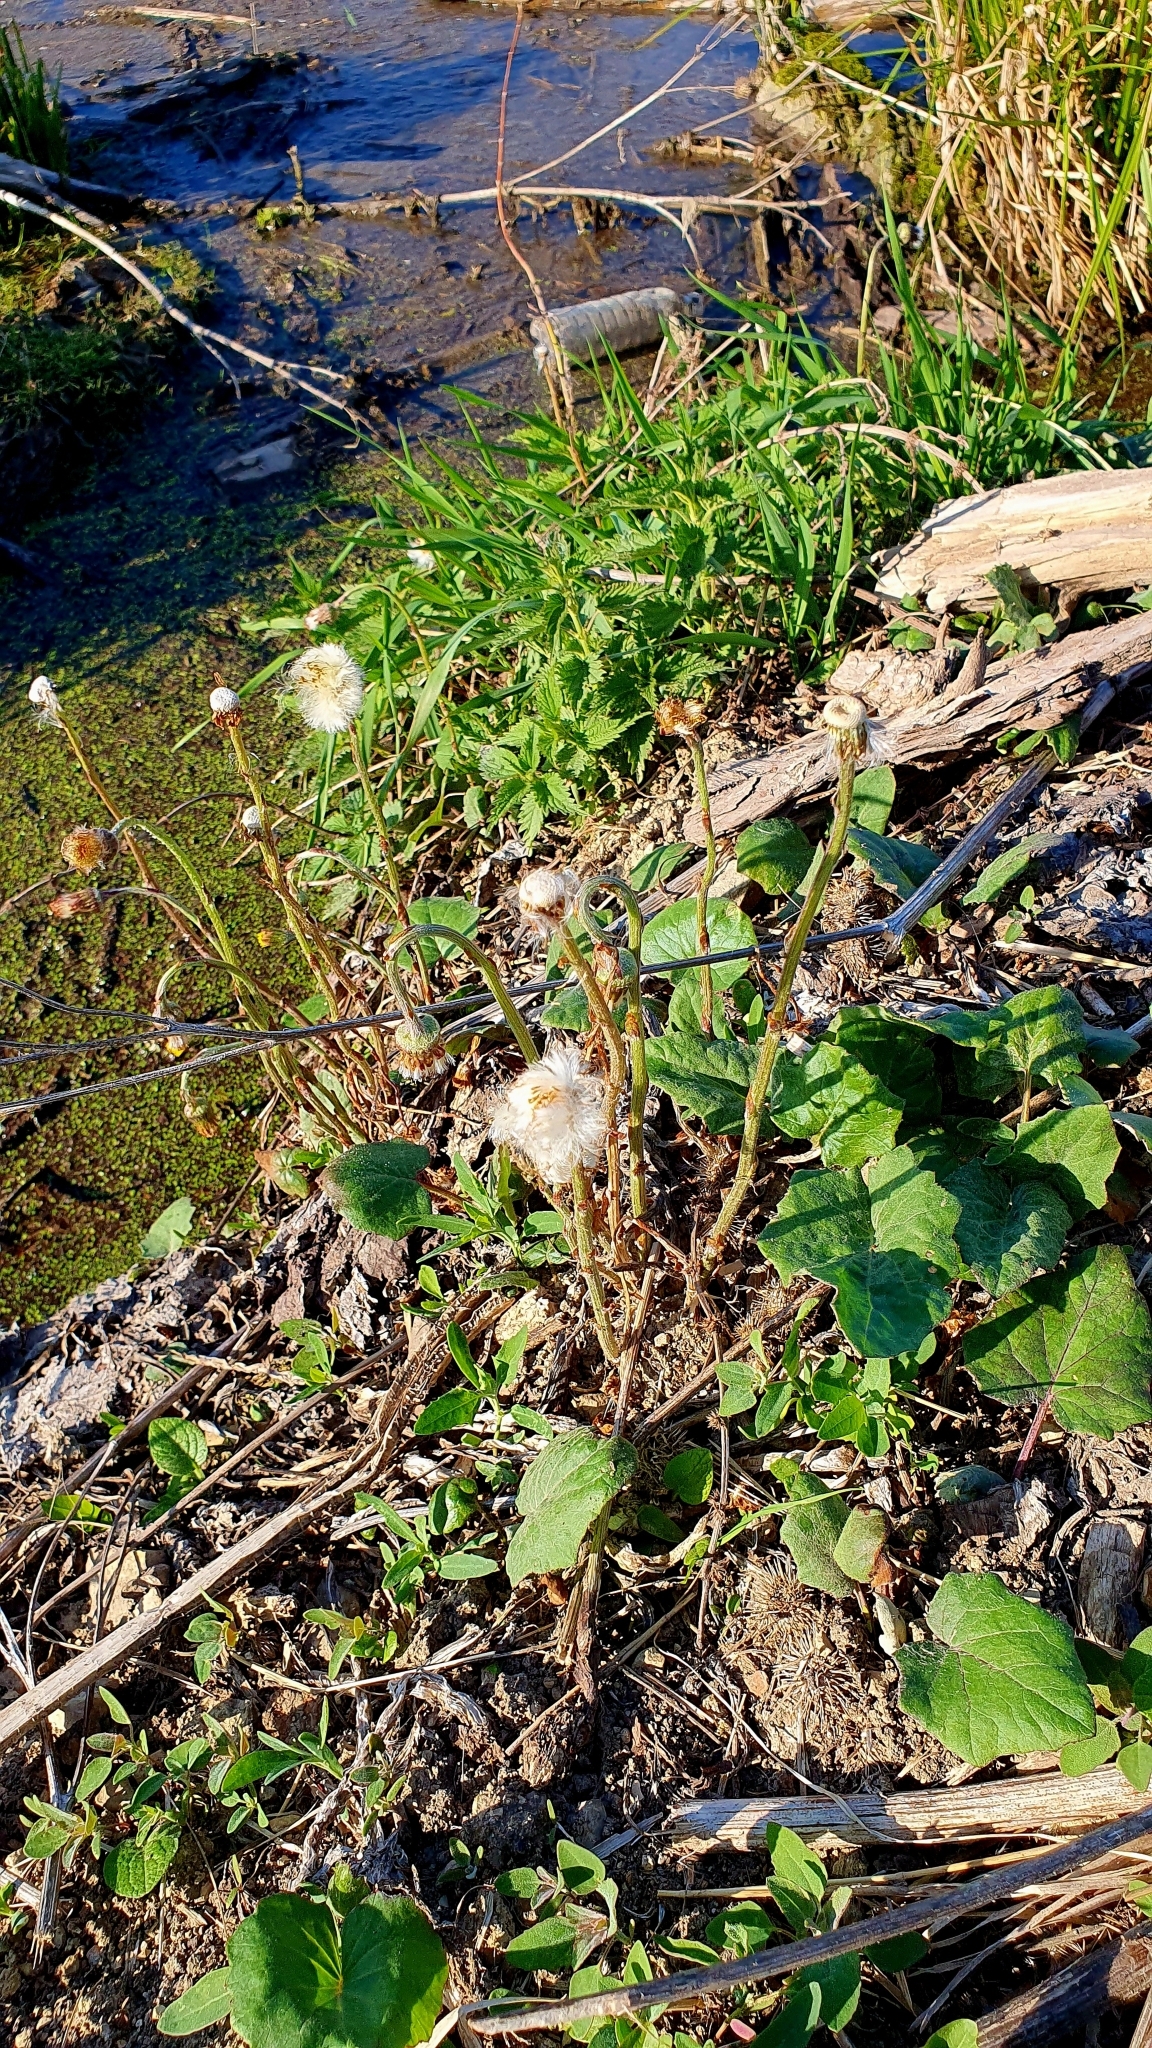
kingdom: Plantae
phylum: Tracheophyta
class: Magnoliopsida
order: Asterales
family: Asteraceae
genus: Tussilago
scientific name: Tussilago farfara
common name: Coltsfoot
